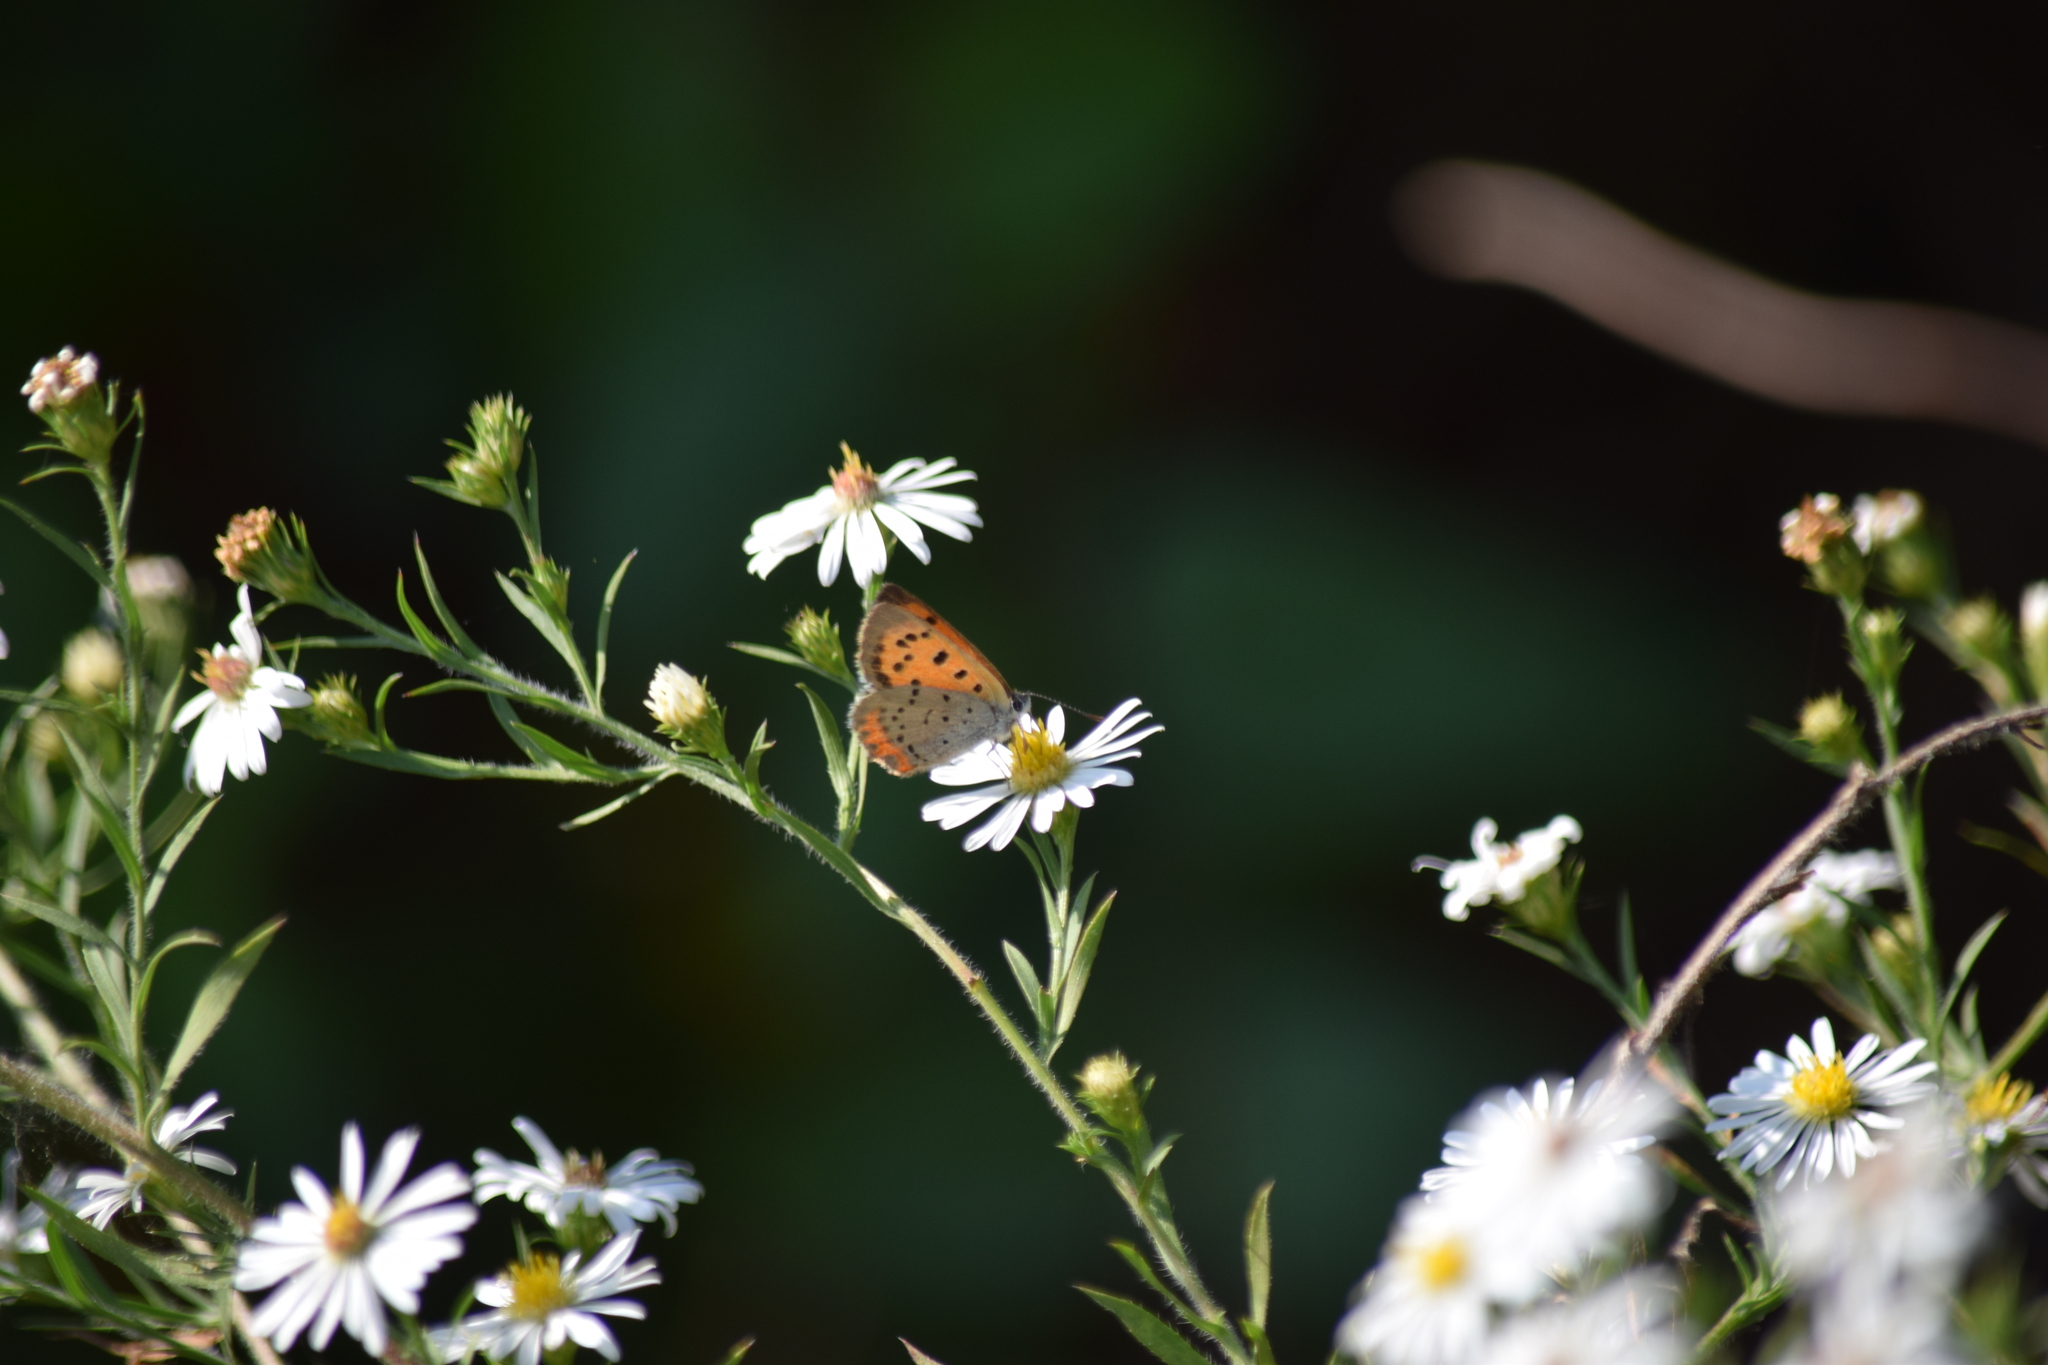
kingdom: Animalia
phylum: Arthropoda
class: Insecta
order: Lepidoptera
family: Lycaenidae
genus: Tharsalea
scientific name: Tharsalea hyllus
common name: Bronze copper
